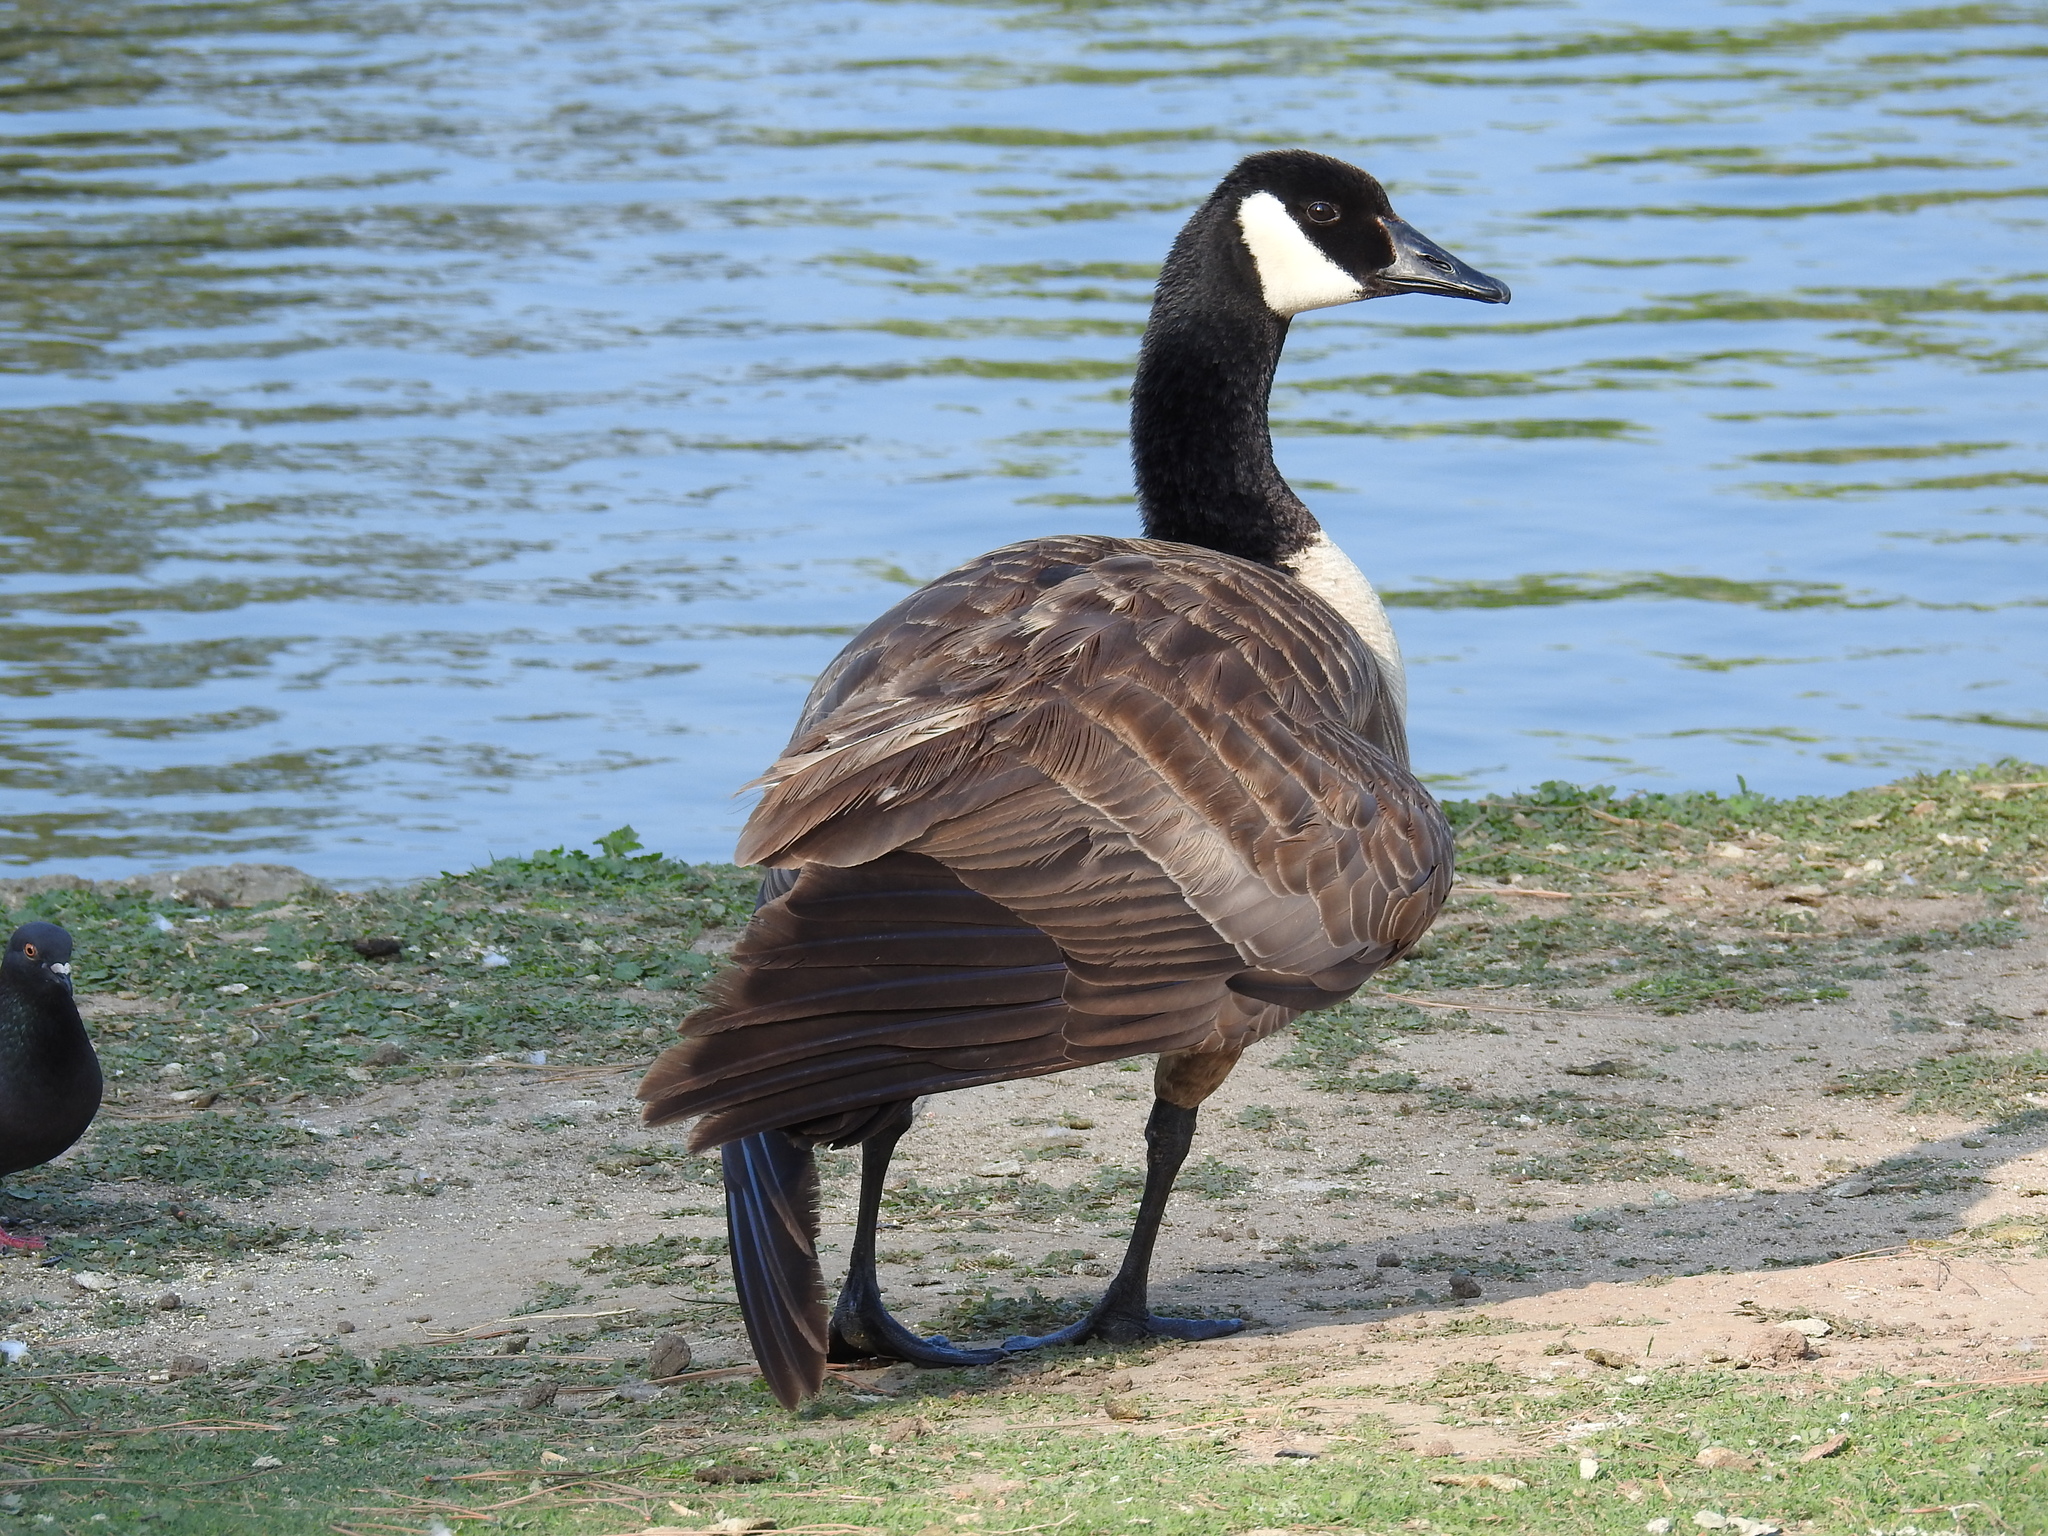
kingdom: Animalia
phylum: Chordata
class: Aves
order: Anseriformes
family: Anatidae
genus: Branta
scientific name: Branta canadensis
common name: Canada goose
